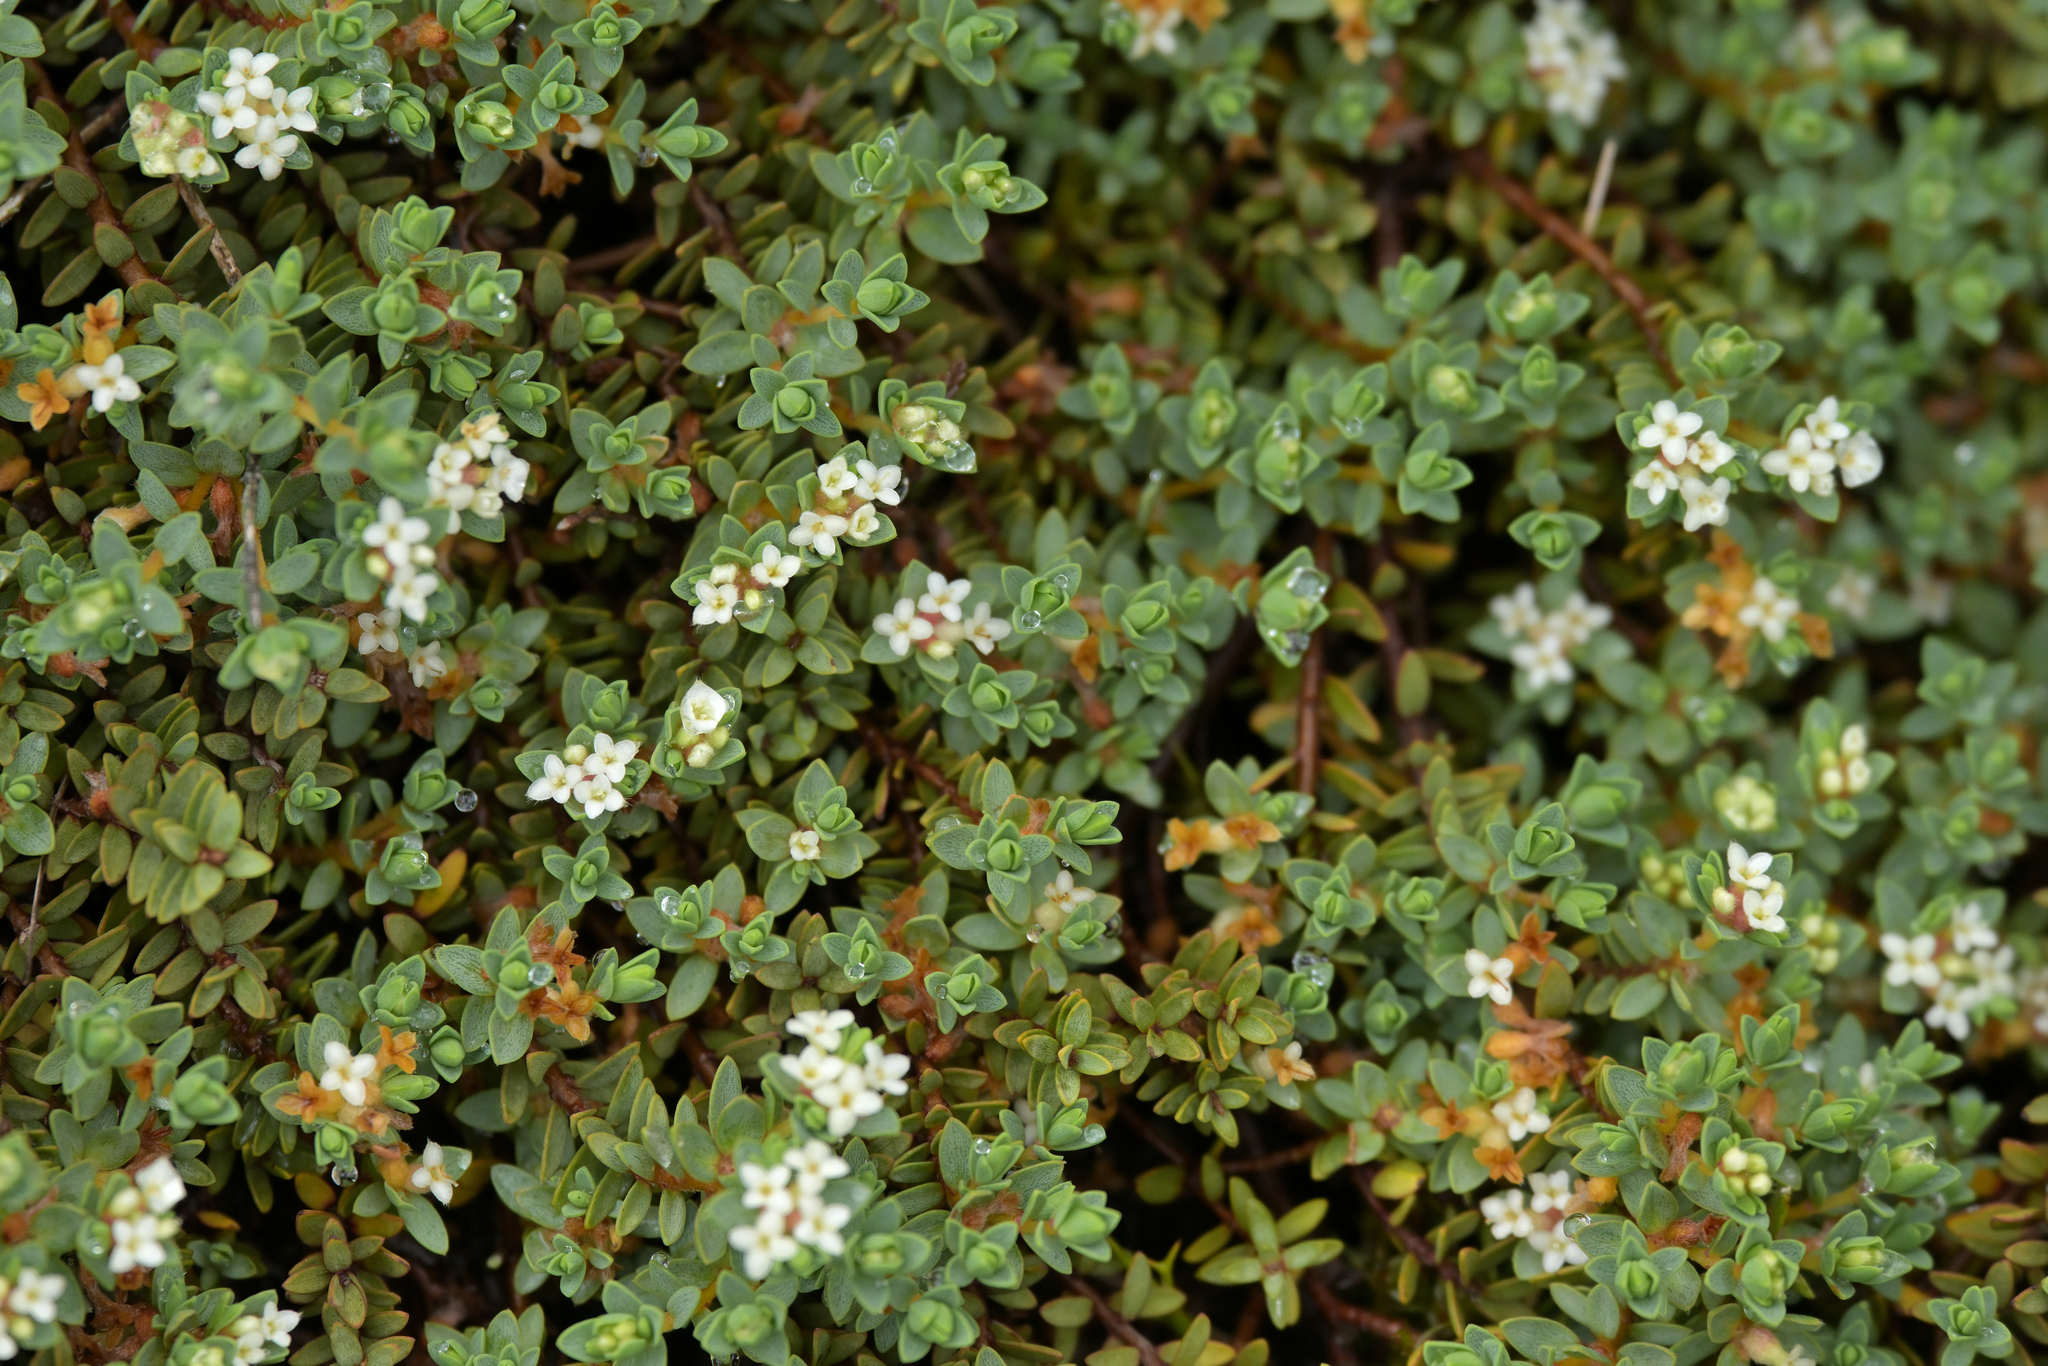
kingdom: Plantae
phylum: Tracheophyta
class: Magnoliopsida
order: Malvales
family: Thymelaeaceae
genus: Pimelea
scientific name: Pimelea prostrata
